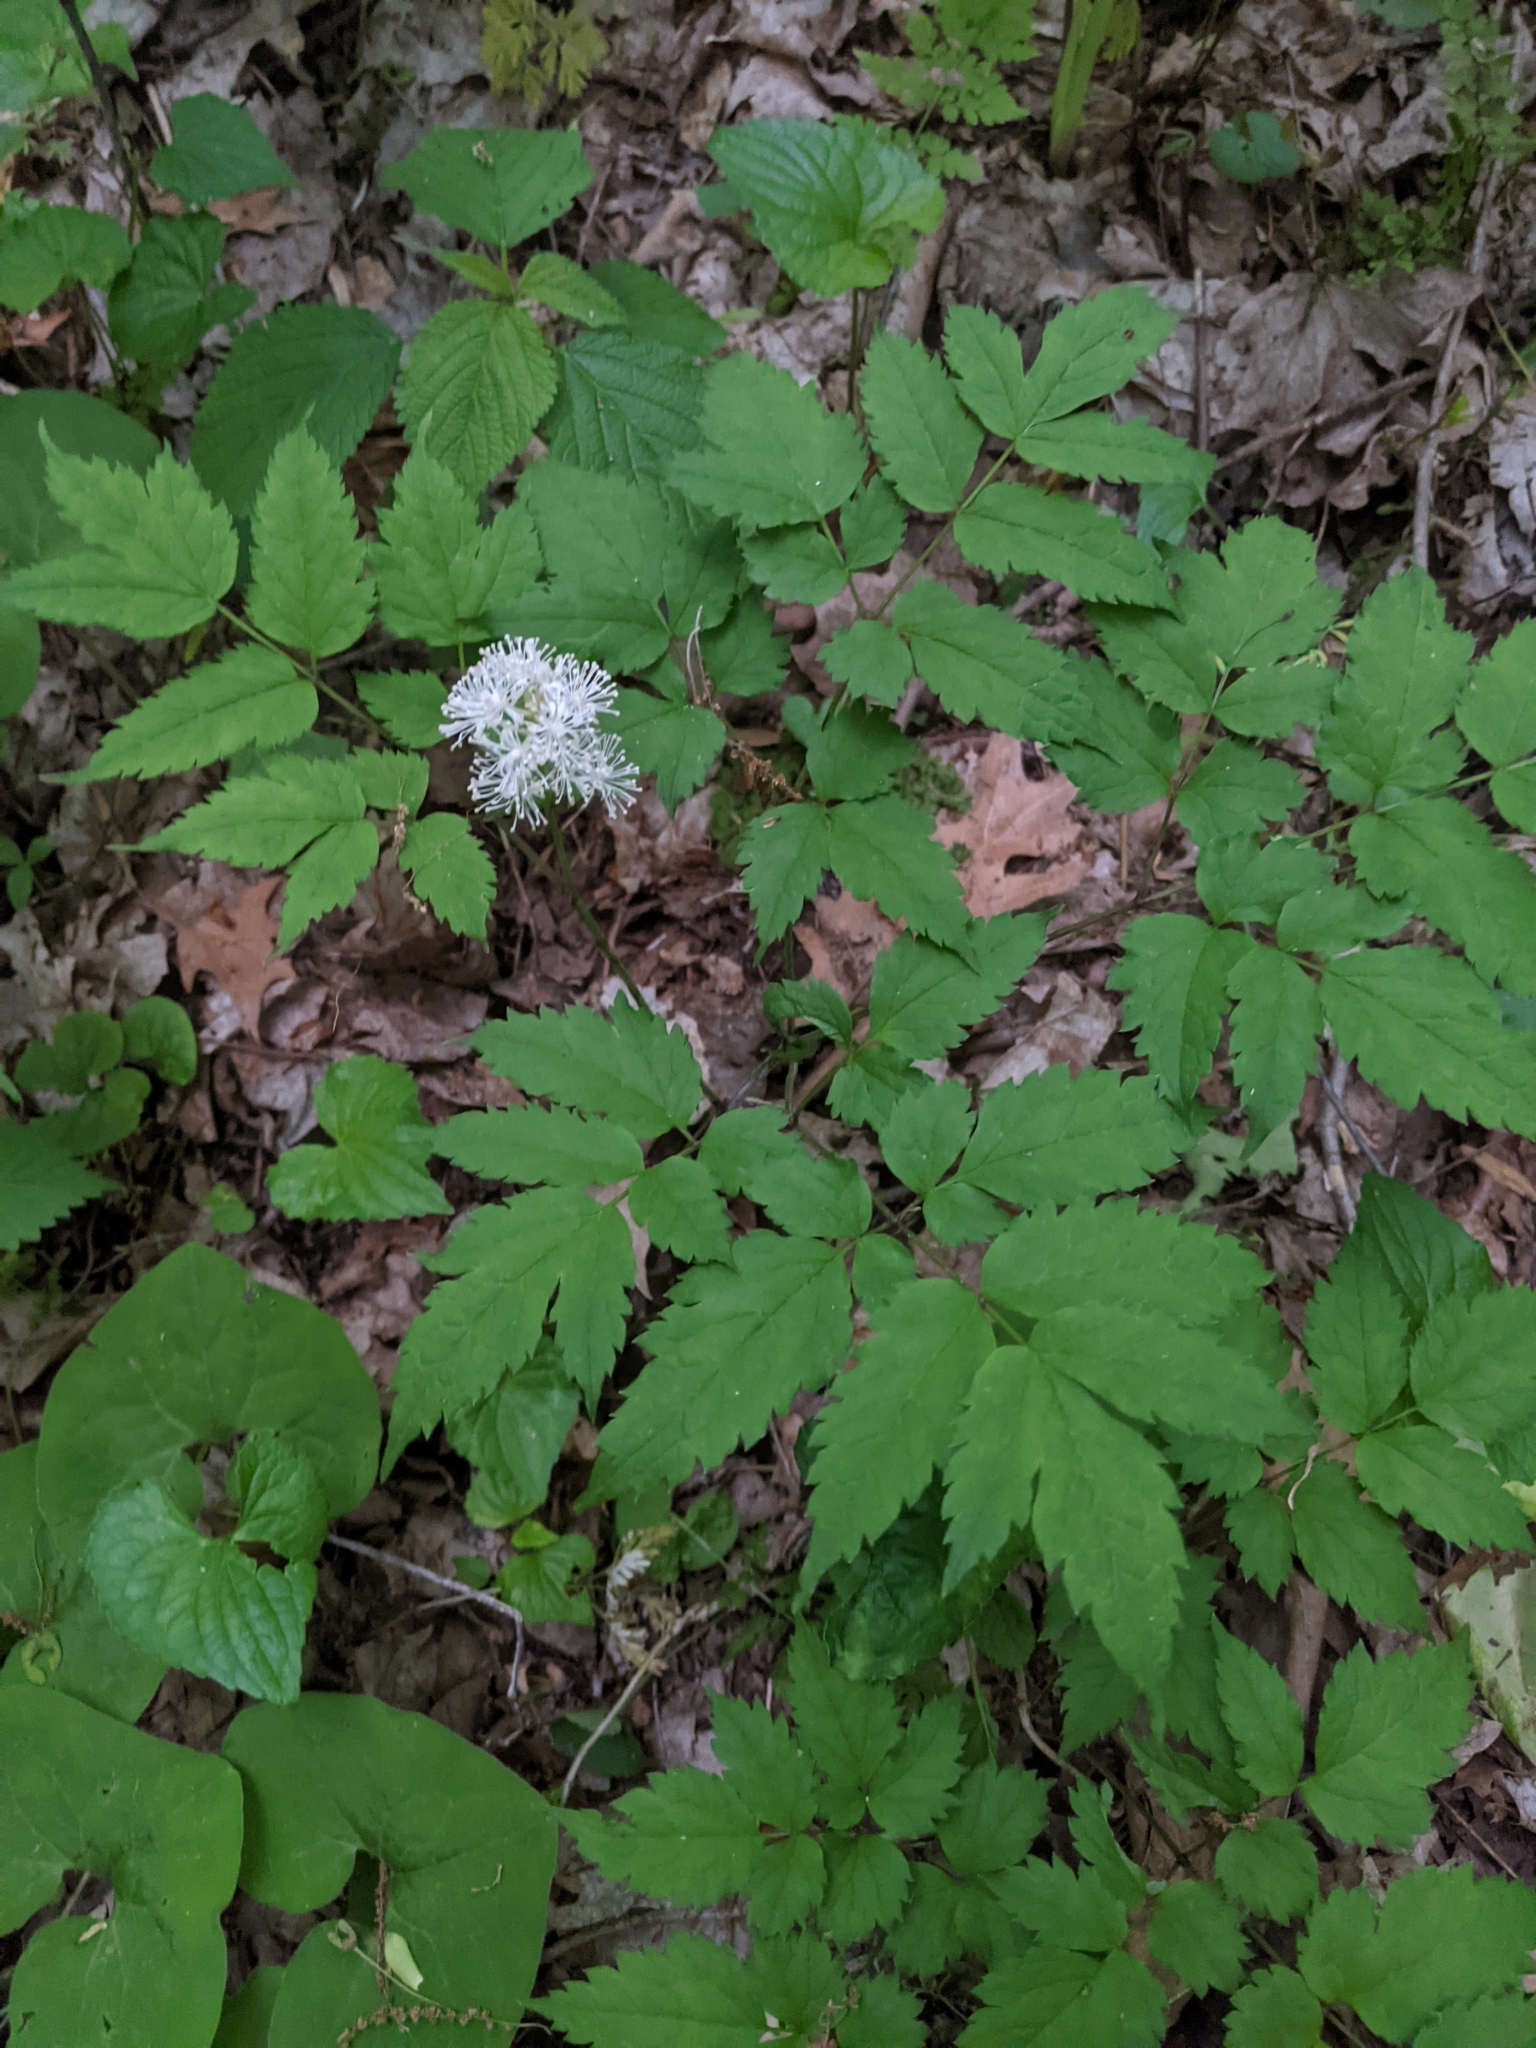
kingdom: Plantae
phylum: Tracheophyta
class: Magnoliopsida
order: Ranunculales
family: Ranunculaceae
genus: Actaea
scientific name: Actaea pachypoda
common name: Doll's-eyes
